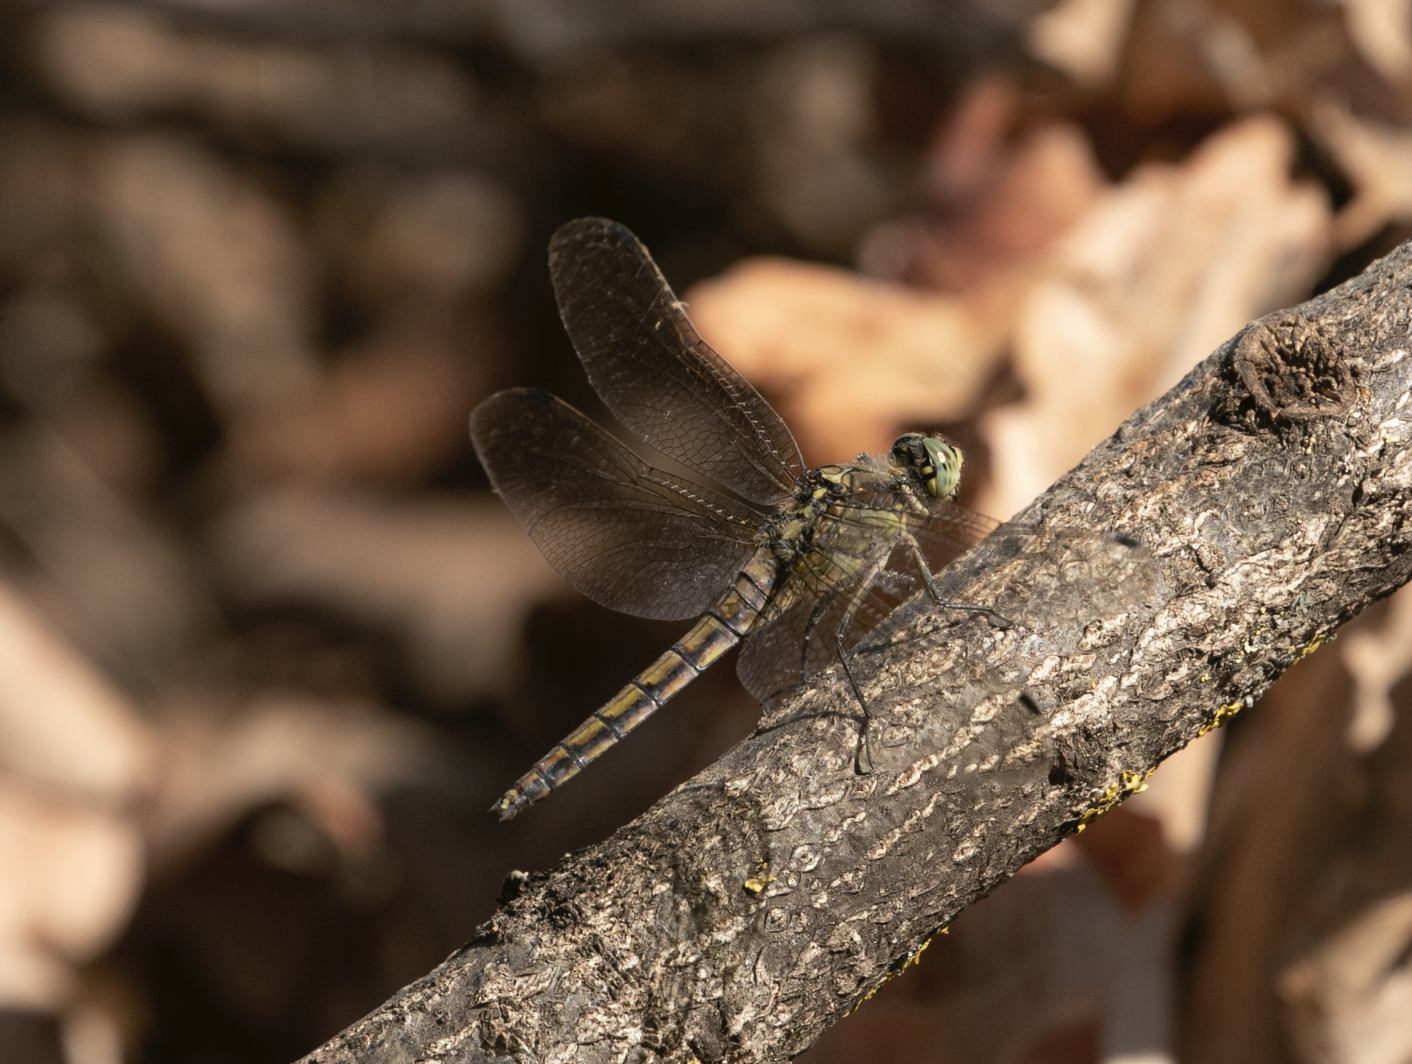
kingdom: Animalia
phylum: Arthropoda
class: Insecta
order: Odonata
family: Libellulidae
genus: Orthetrum
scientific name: Orthetrum cancellatum
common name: Black-tailed skimmer
